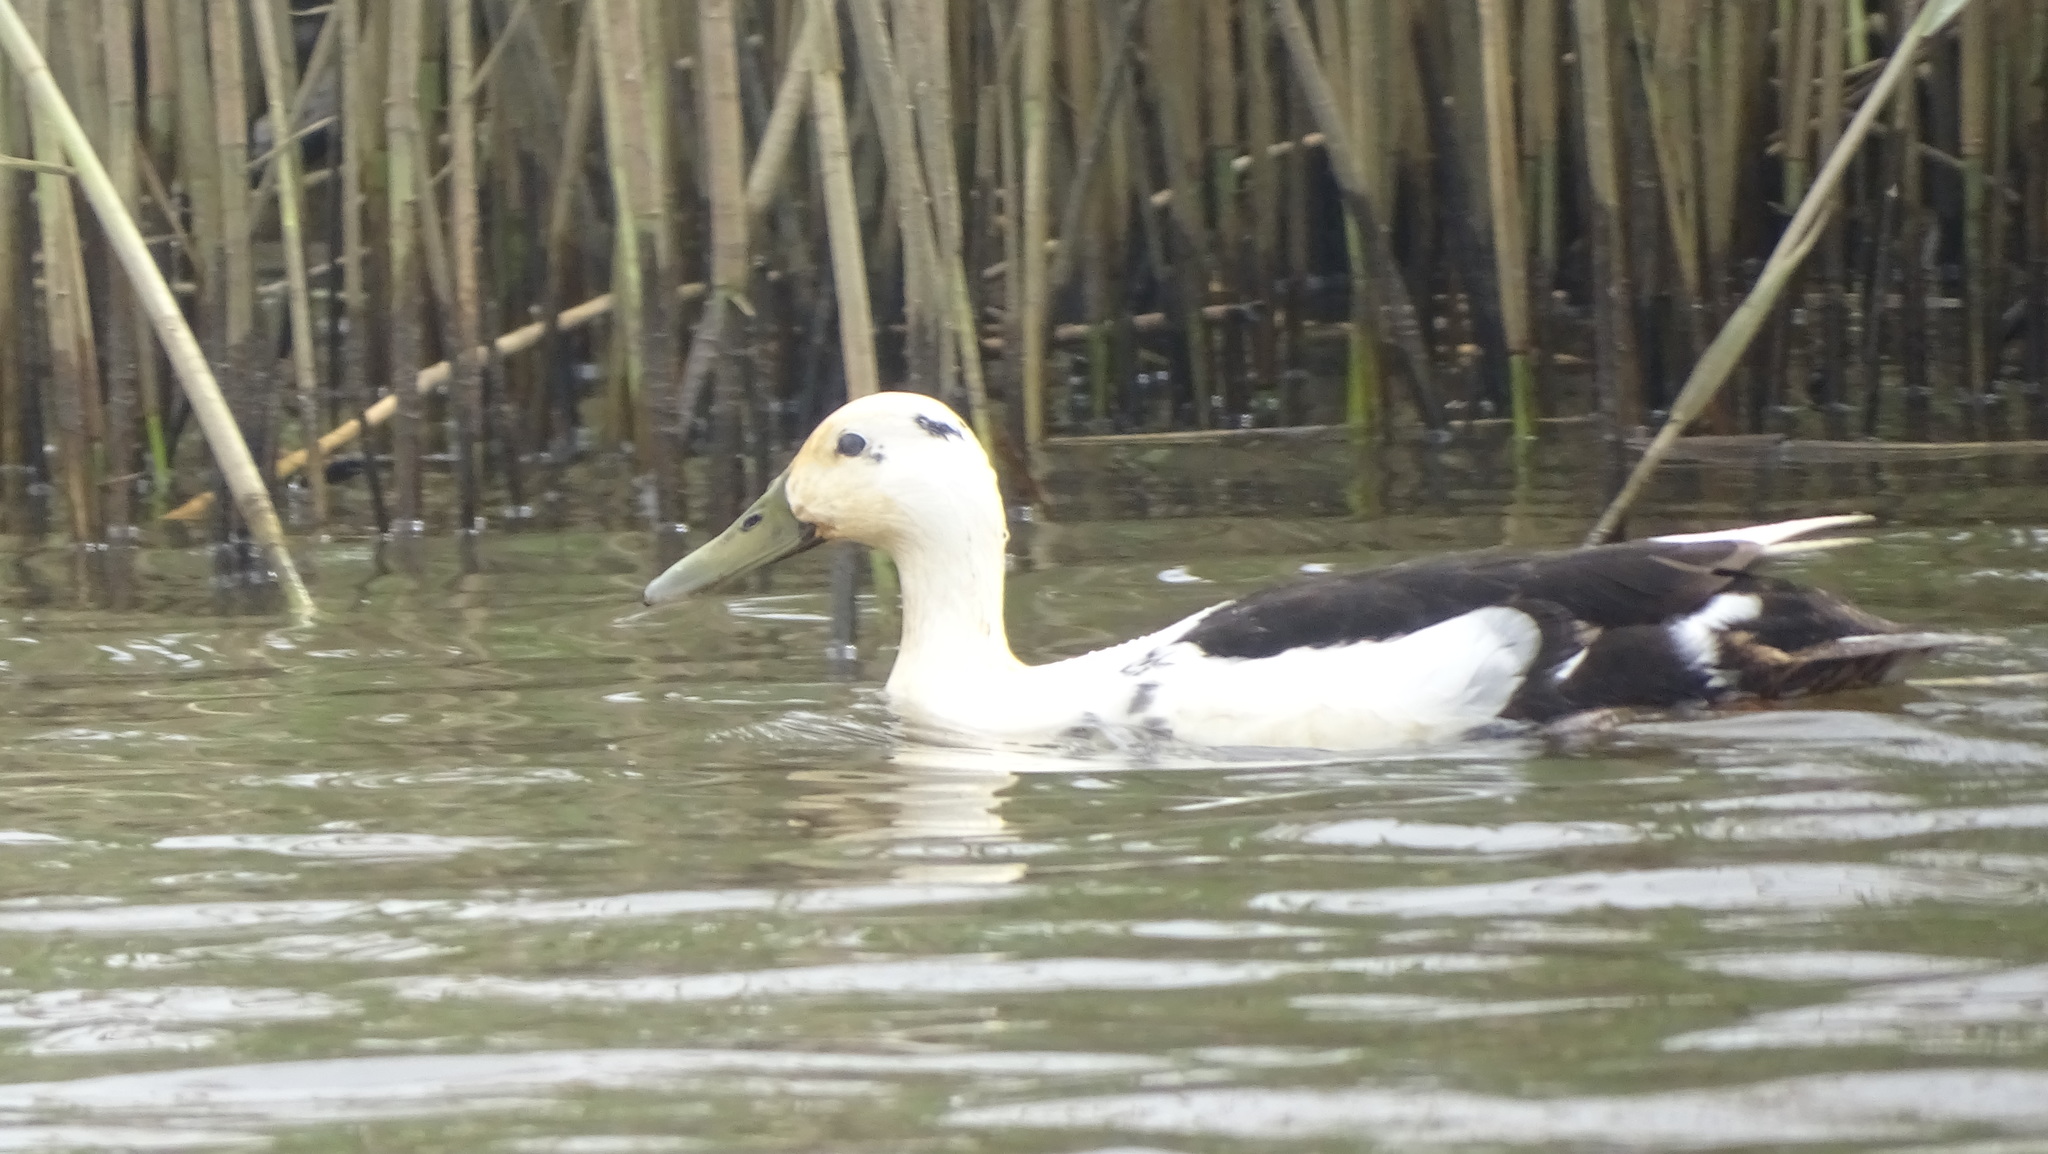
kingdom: Animalia
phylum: Chordata
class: Aves
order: Anseriformes
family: Anatidae
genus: Anas
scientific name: Anas platyrhynchos
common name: Mallard
